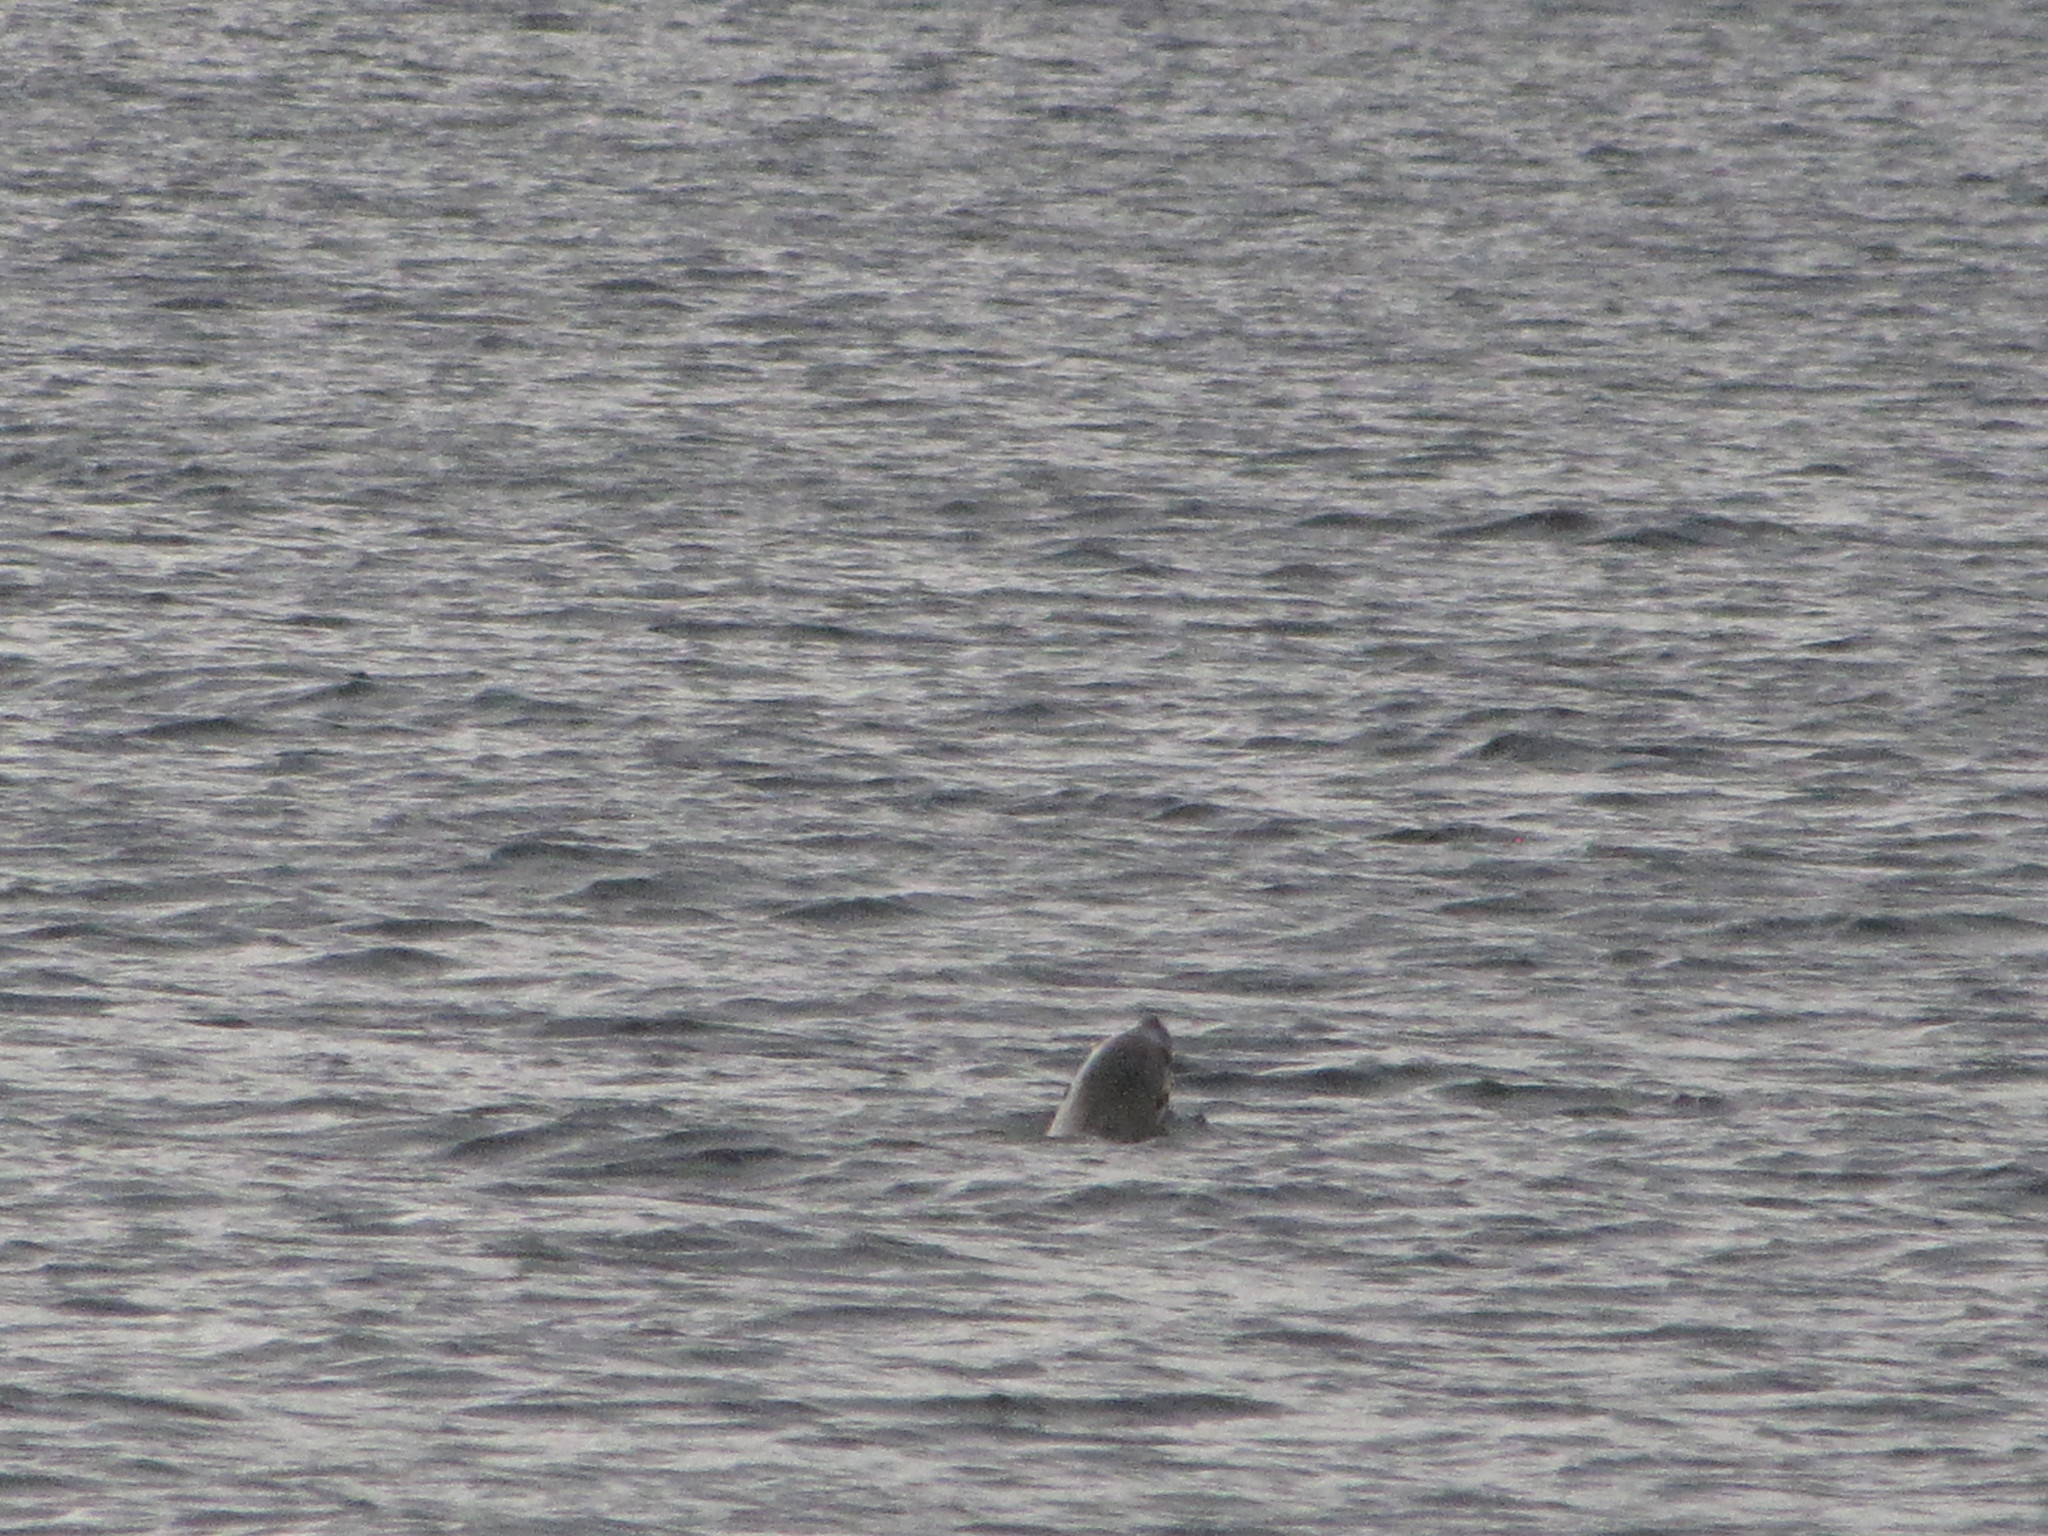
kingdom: Animalia
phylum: Chordata
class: Mammalia
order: Carnivora
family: Otariidae
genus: Zalophus
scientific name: Zalophus californianus
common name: California sea lion
